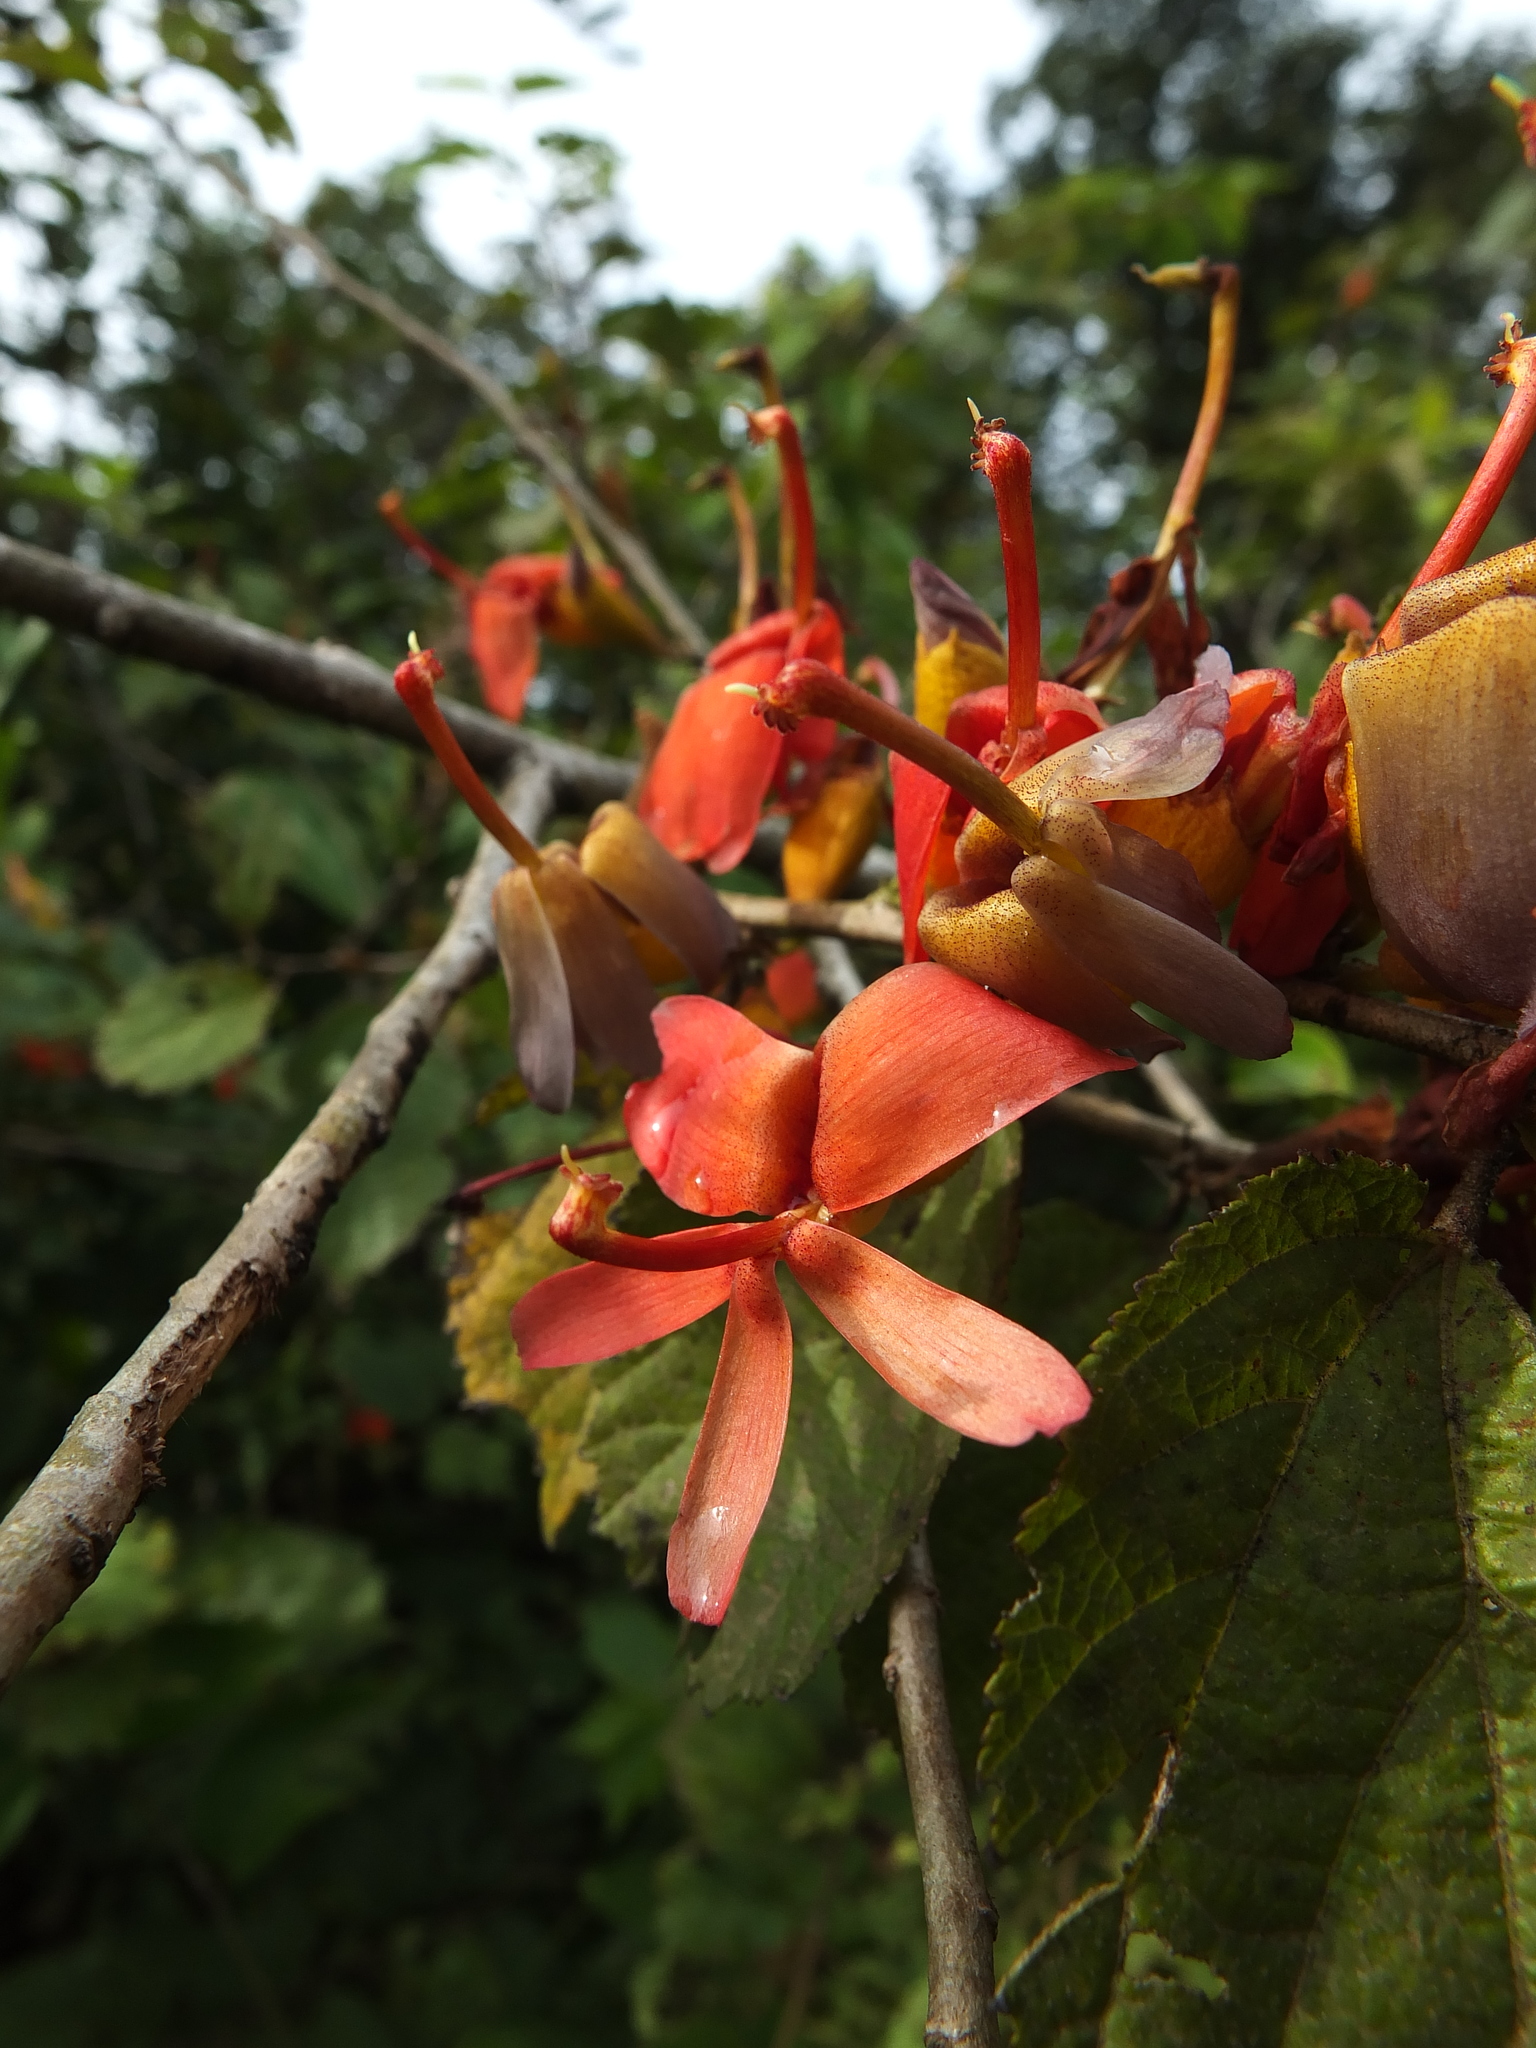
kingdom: Plantae
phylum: Tracheophyta
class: Magnoliopsida
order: Malvales
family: Malvaceae
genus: Helicteres
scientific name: Helicteres isora
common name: East indian screwtree
